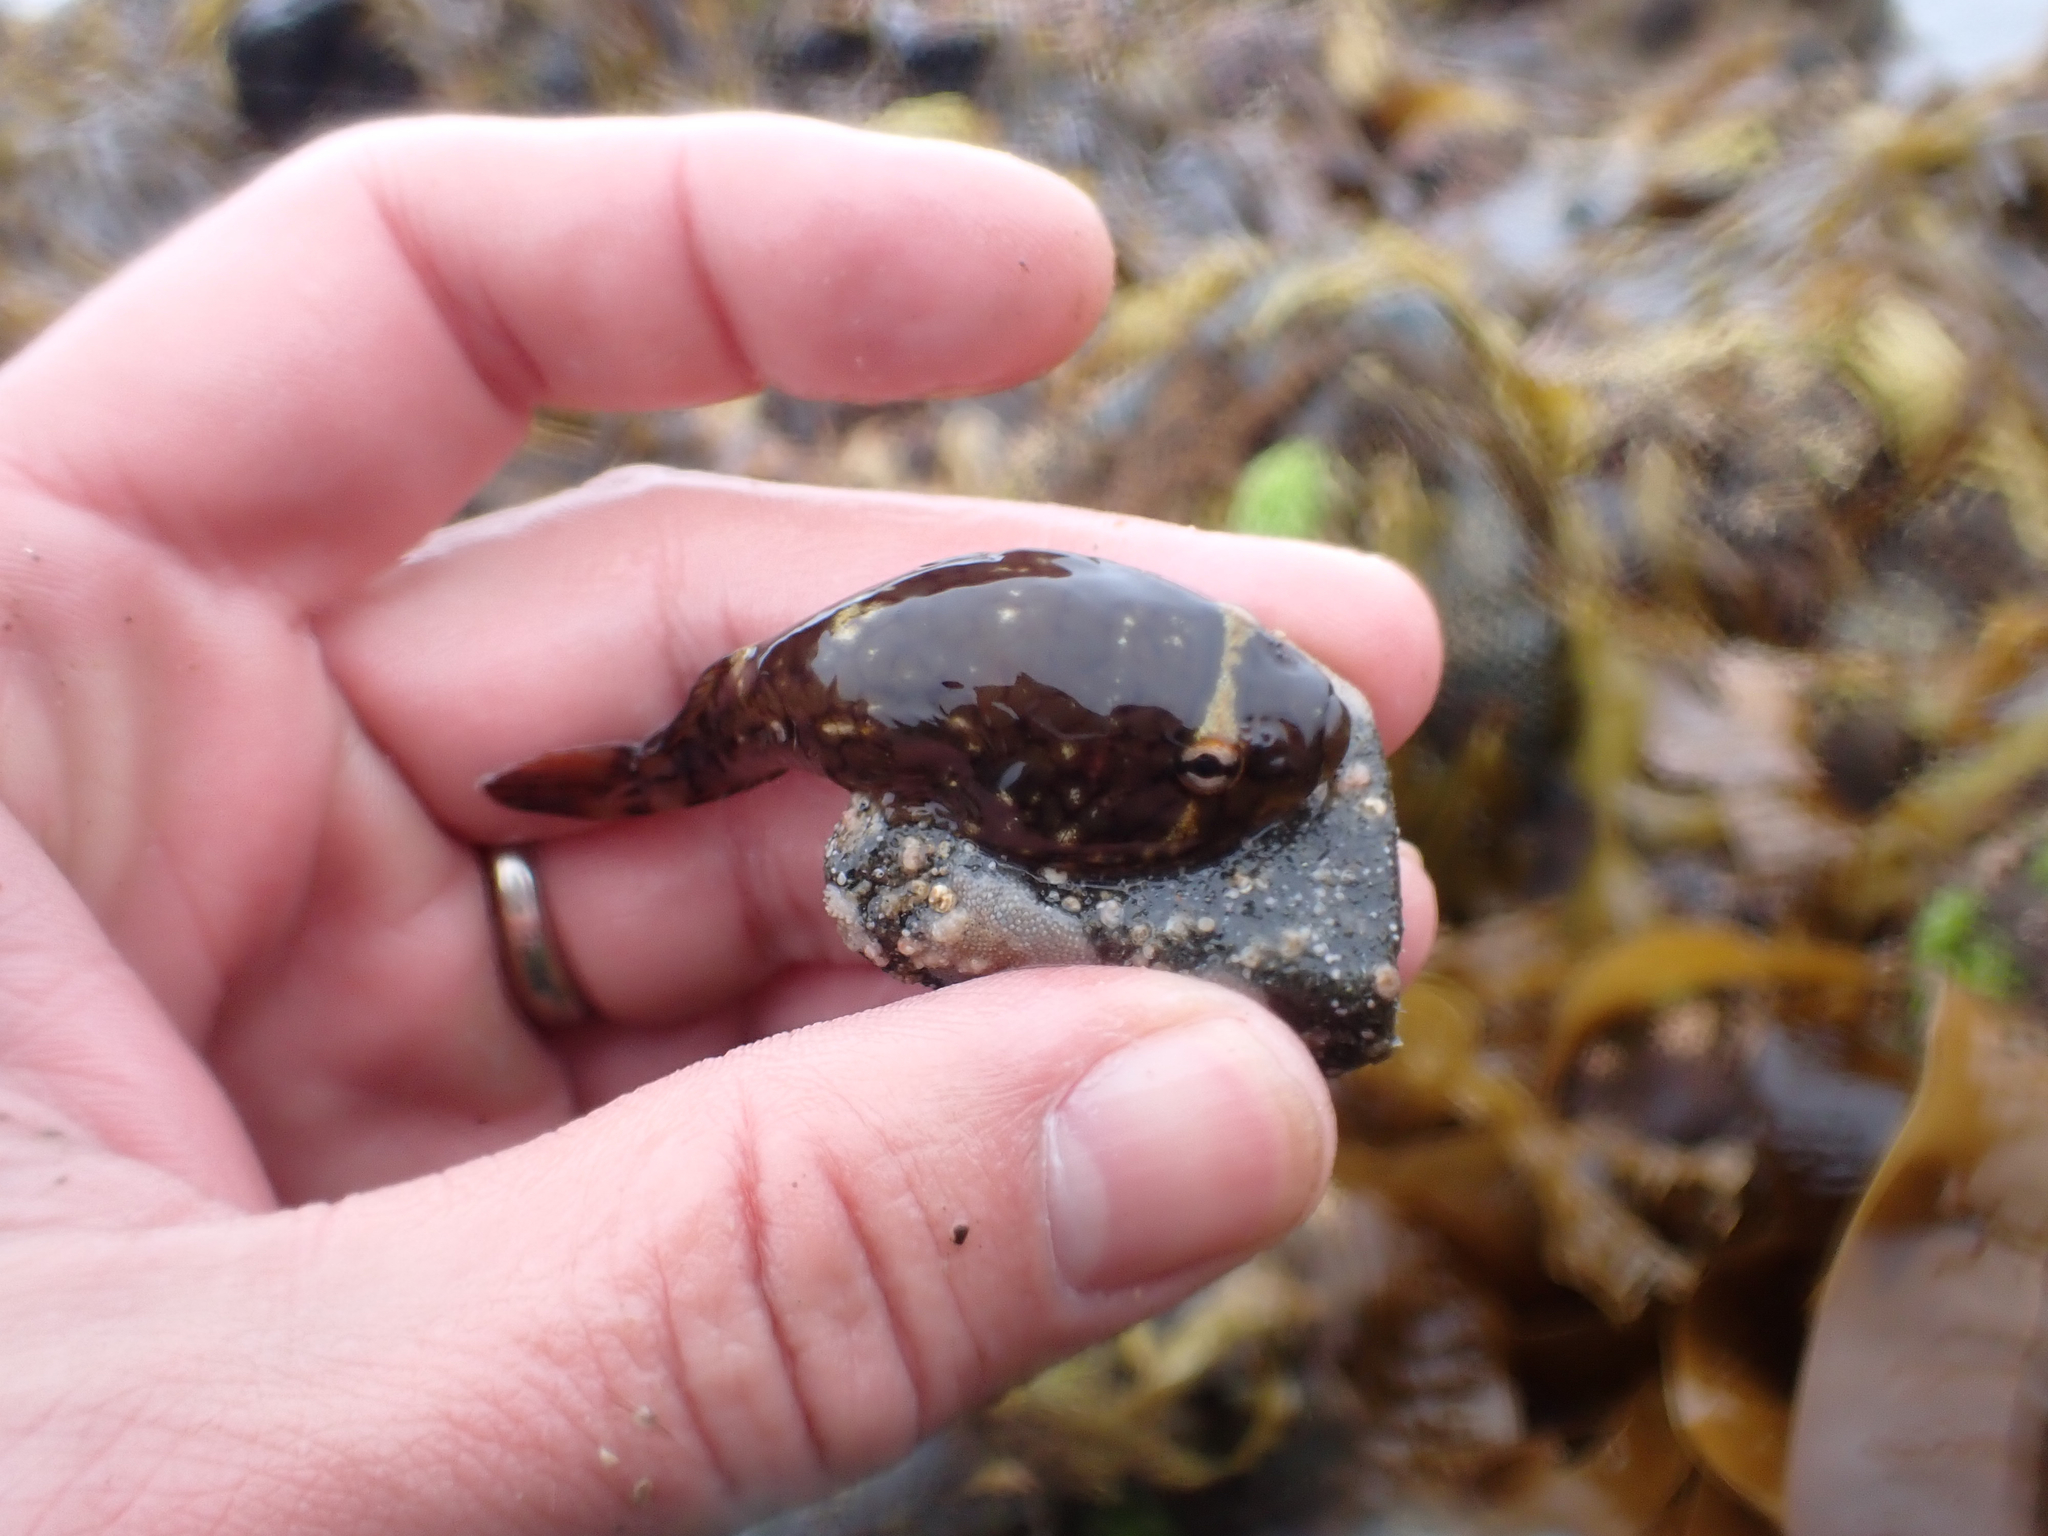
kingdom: Animalia
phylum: Chordata
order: Gobiesociformes
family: Gobiesocidae
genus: Gobiesox
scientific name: Gobiesox maeandricus
